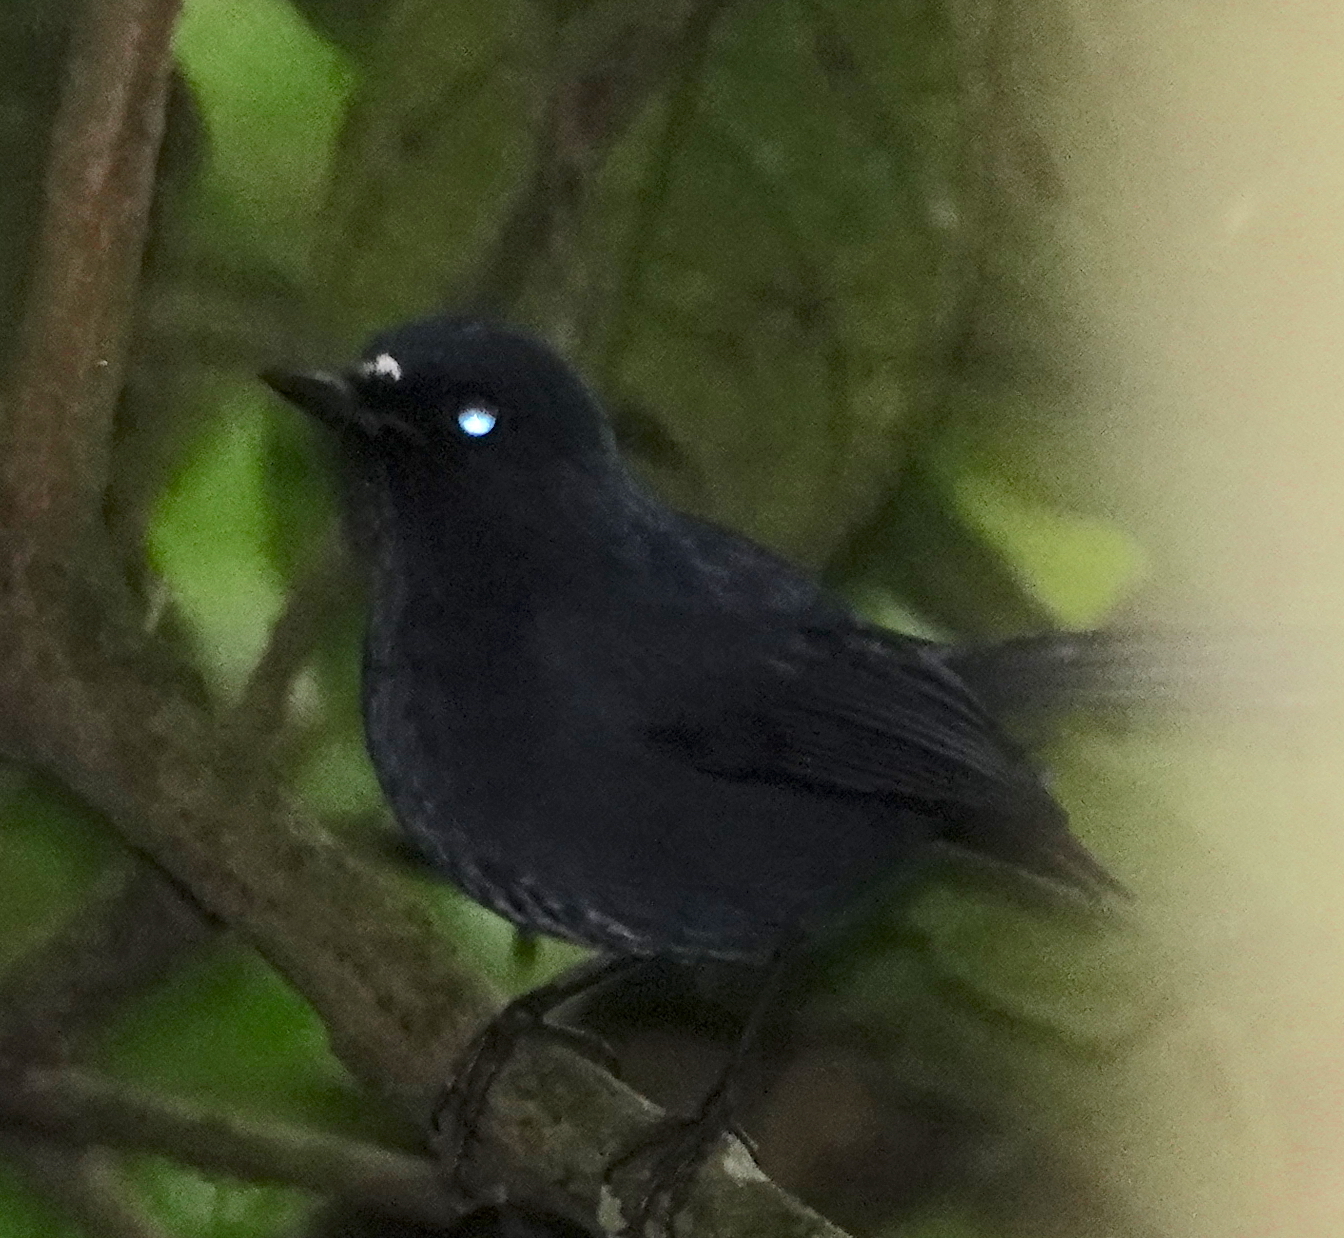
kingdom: Animalia
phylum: Chordata
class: Aves
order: Passeriformes
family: Muscicapidae
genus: Myiomela
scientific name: Myiomela diana
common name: Sunda robin
